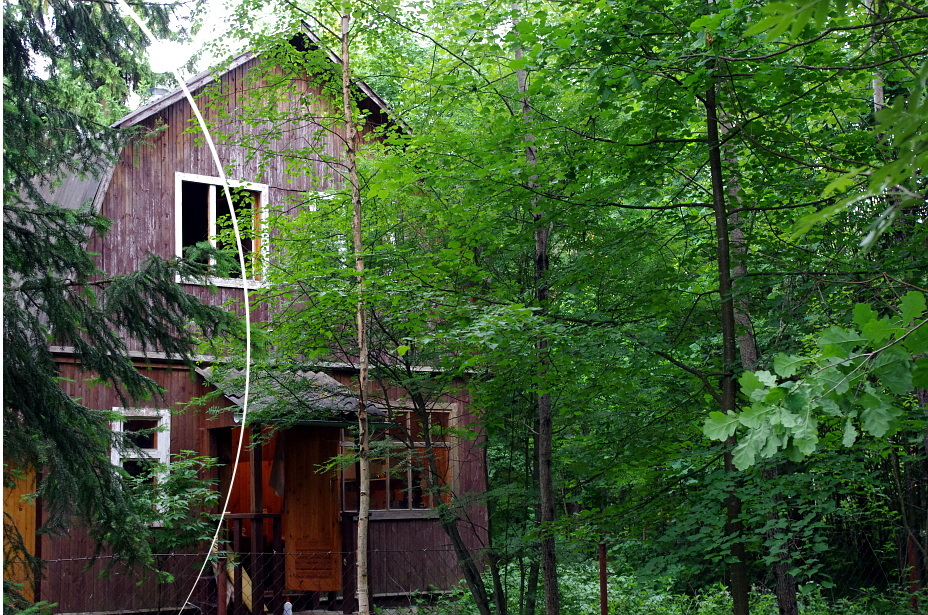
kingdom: Plantae
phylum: Tracheophyta
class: Pinopsida
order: Pinales
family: Pinaceae
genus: Picea
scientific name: Picea abies
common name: Norway spruce
